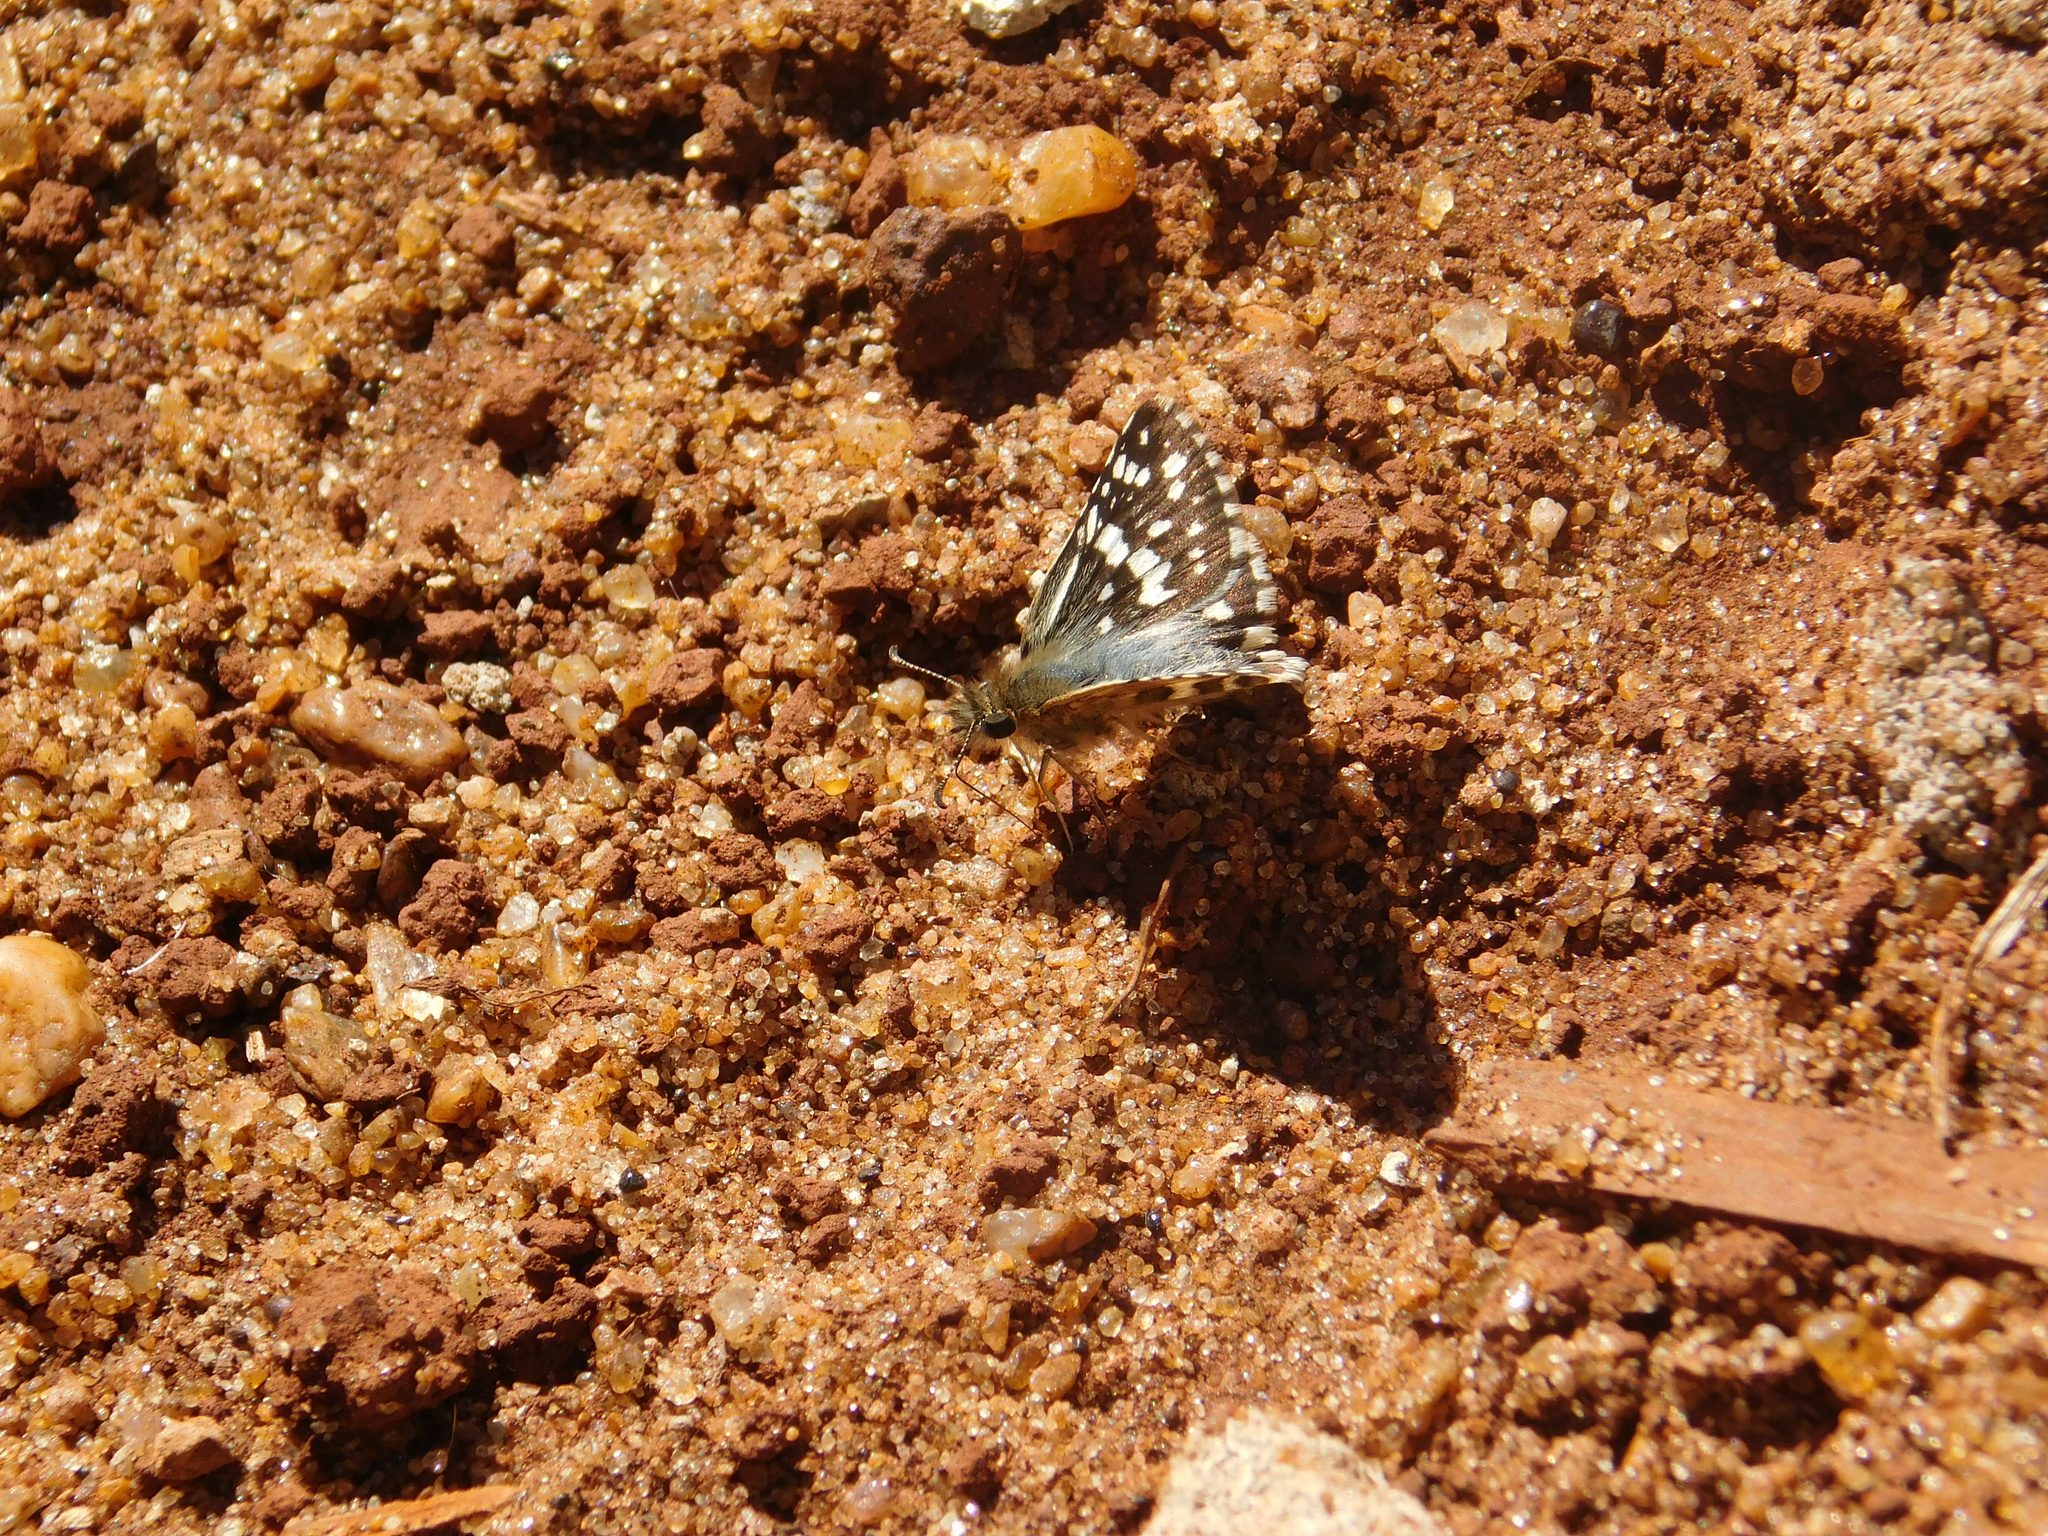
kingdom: Animalia
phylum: Arthropoda
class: Insecta
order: Lepidoptera
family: Hesperiidae
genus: Burnsius
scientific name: Burnsius orcynoides
